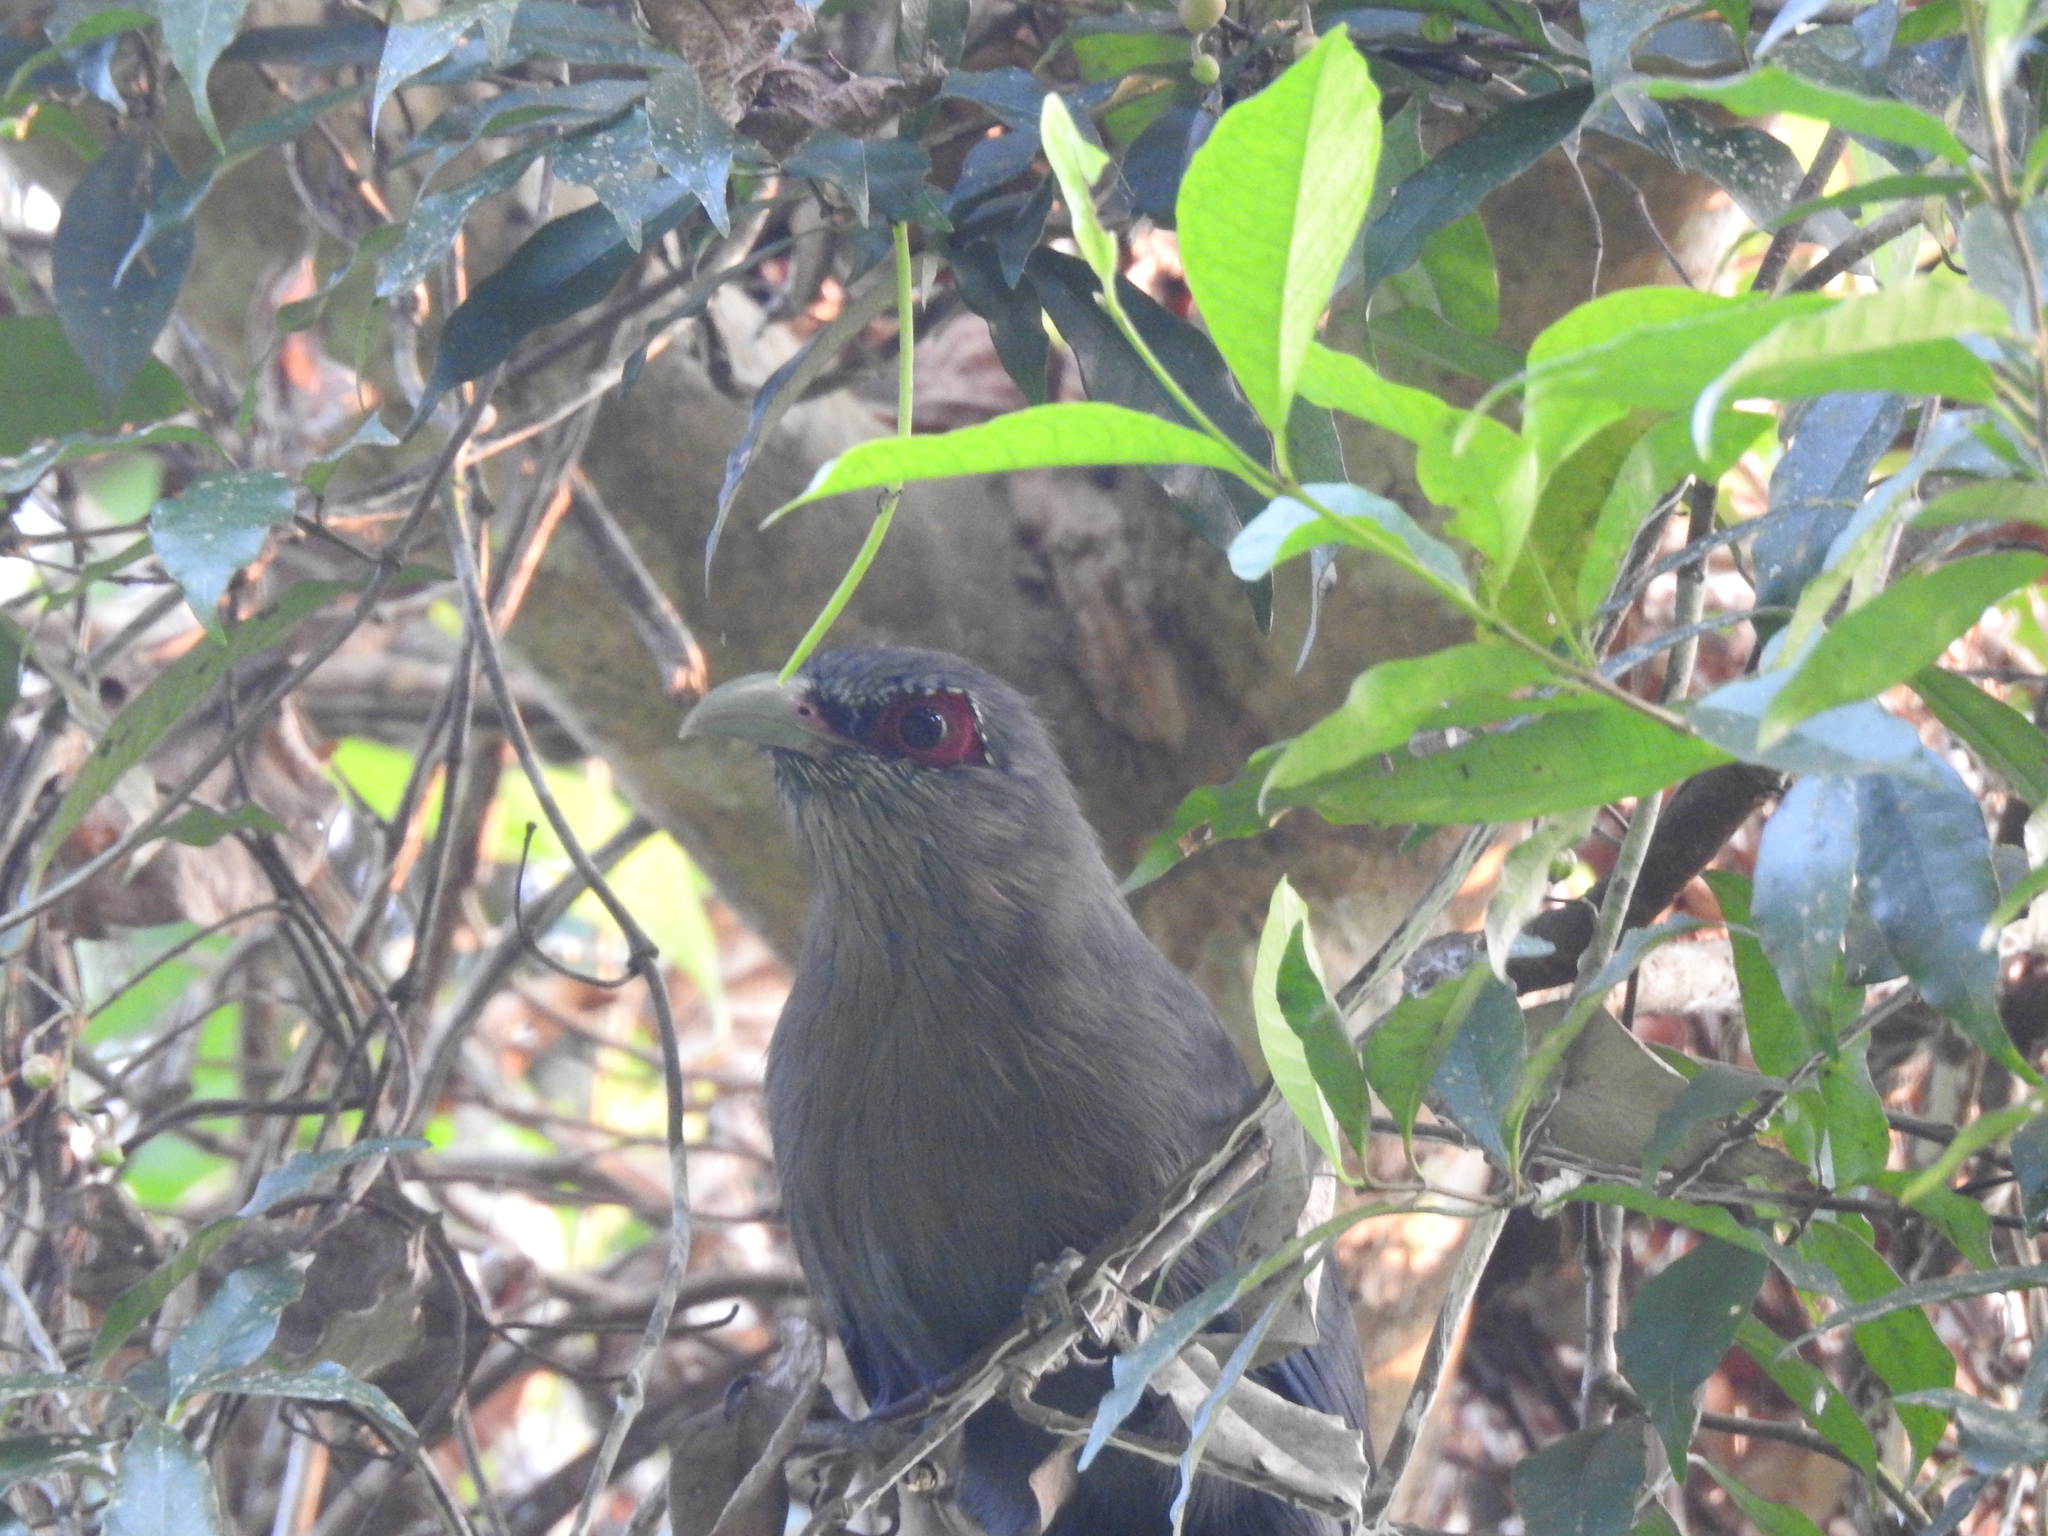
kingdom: Animalia
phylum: Chordata
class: Aves
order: Cuculiformes
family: Cuculidae
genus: Rhopodytes
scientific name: Rhopodytes tristis
